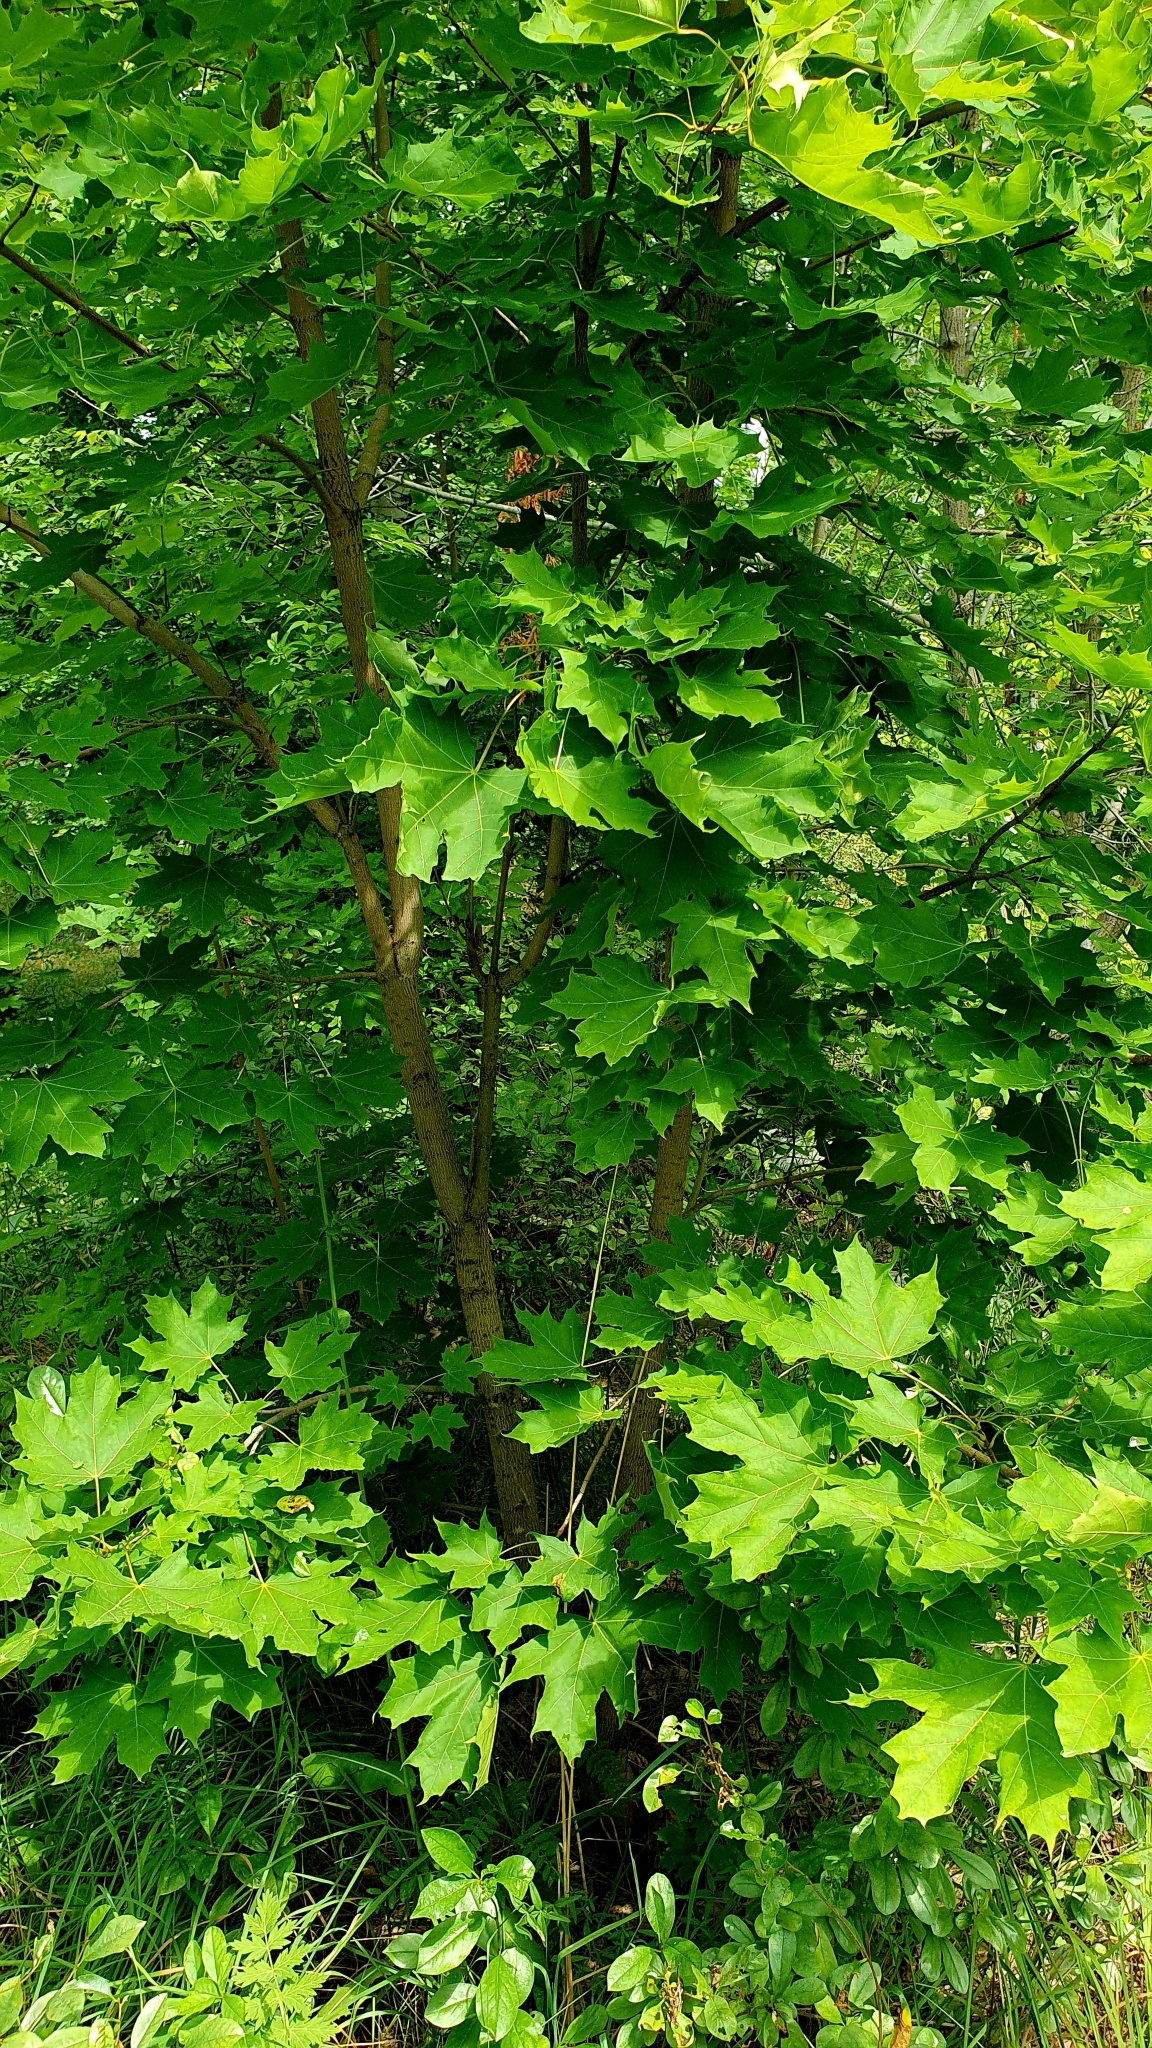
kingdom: Plantae
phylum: Tracheophyta
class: Magnoliopsida
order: Sapindales
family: Sapindaceae
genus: Acer
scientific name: Acer platanoides
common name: Norway maple
